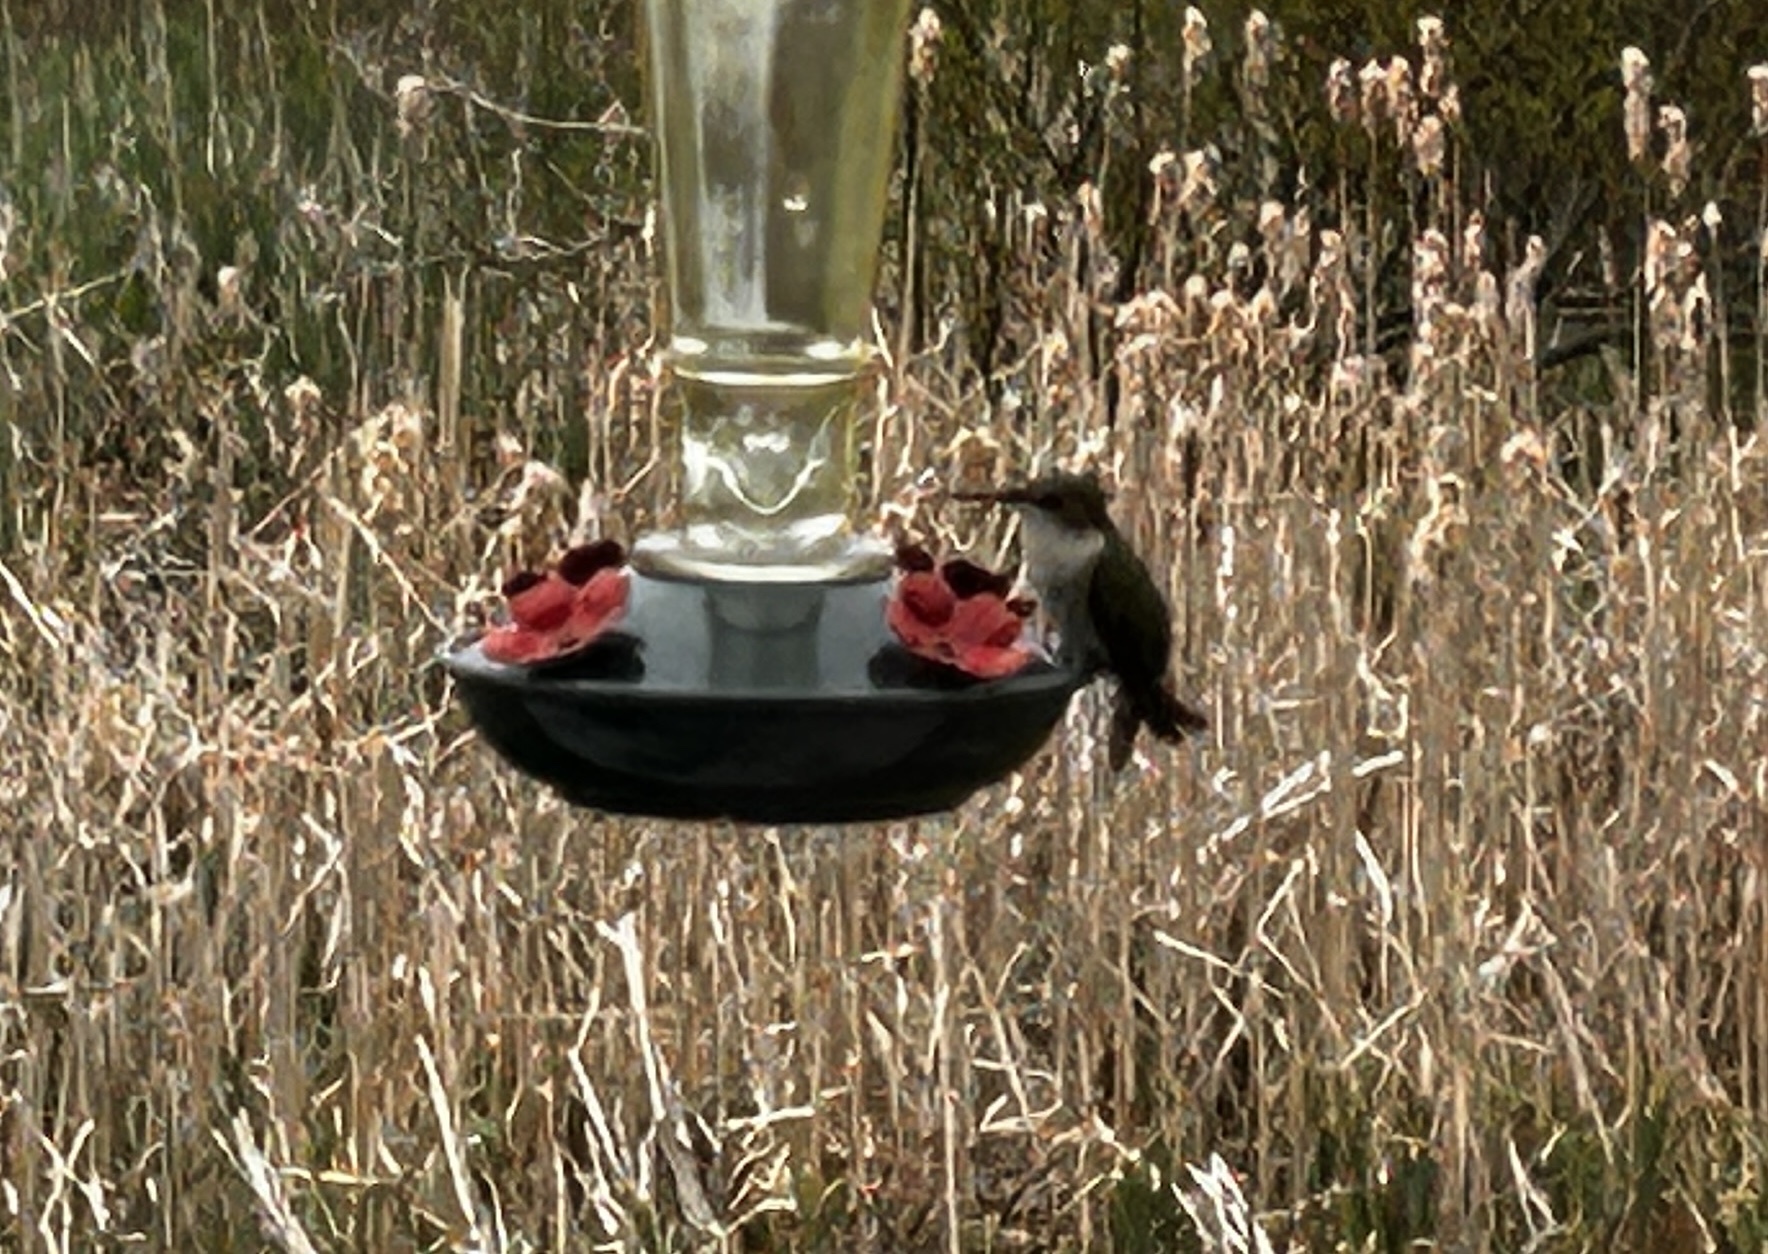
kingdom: Animalia
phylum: Chordata
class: Aves
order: Apodiformes
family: Trochilidae
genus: Archilochus
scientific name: Archilochus colubris
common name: Ruby-throated hummingbird
